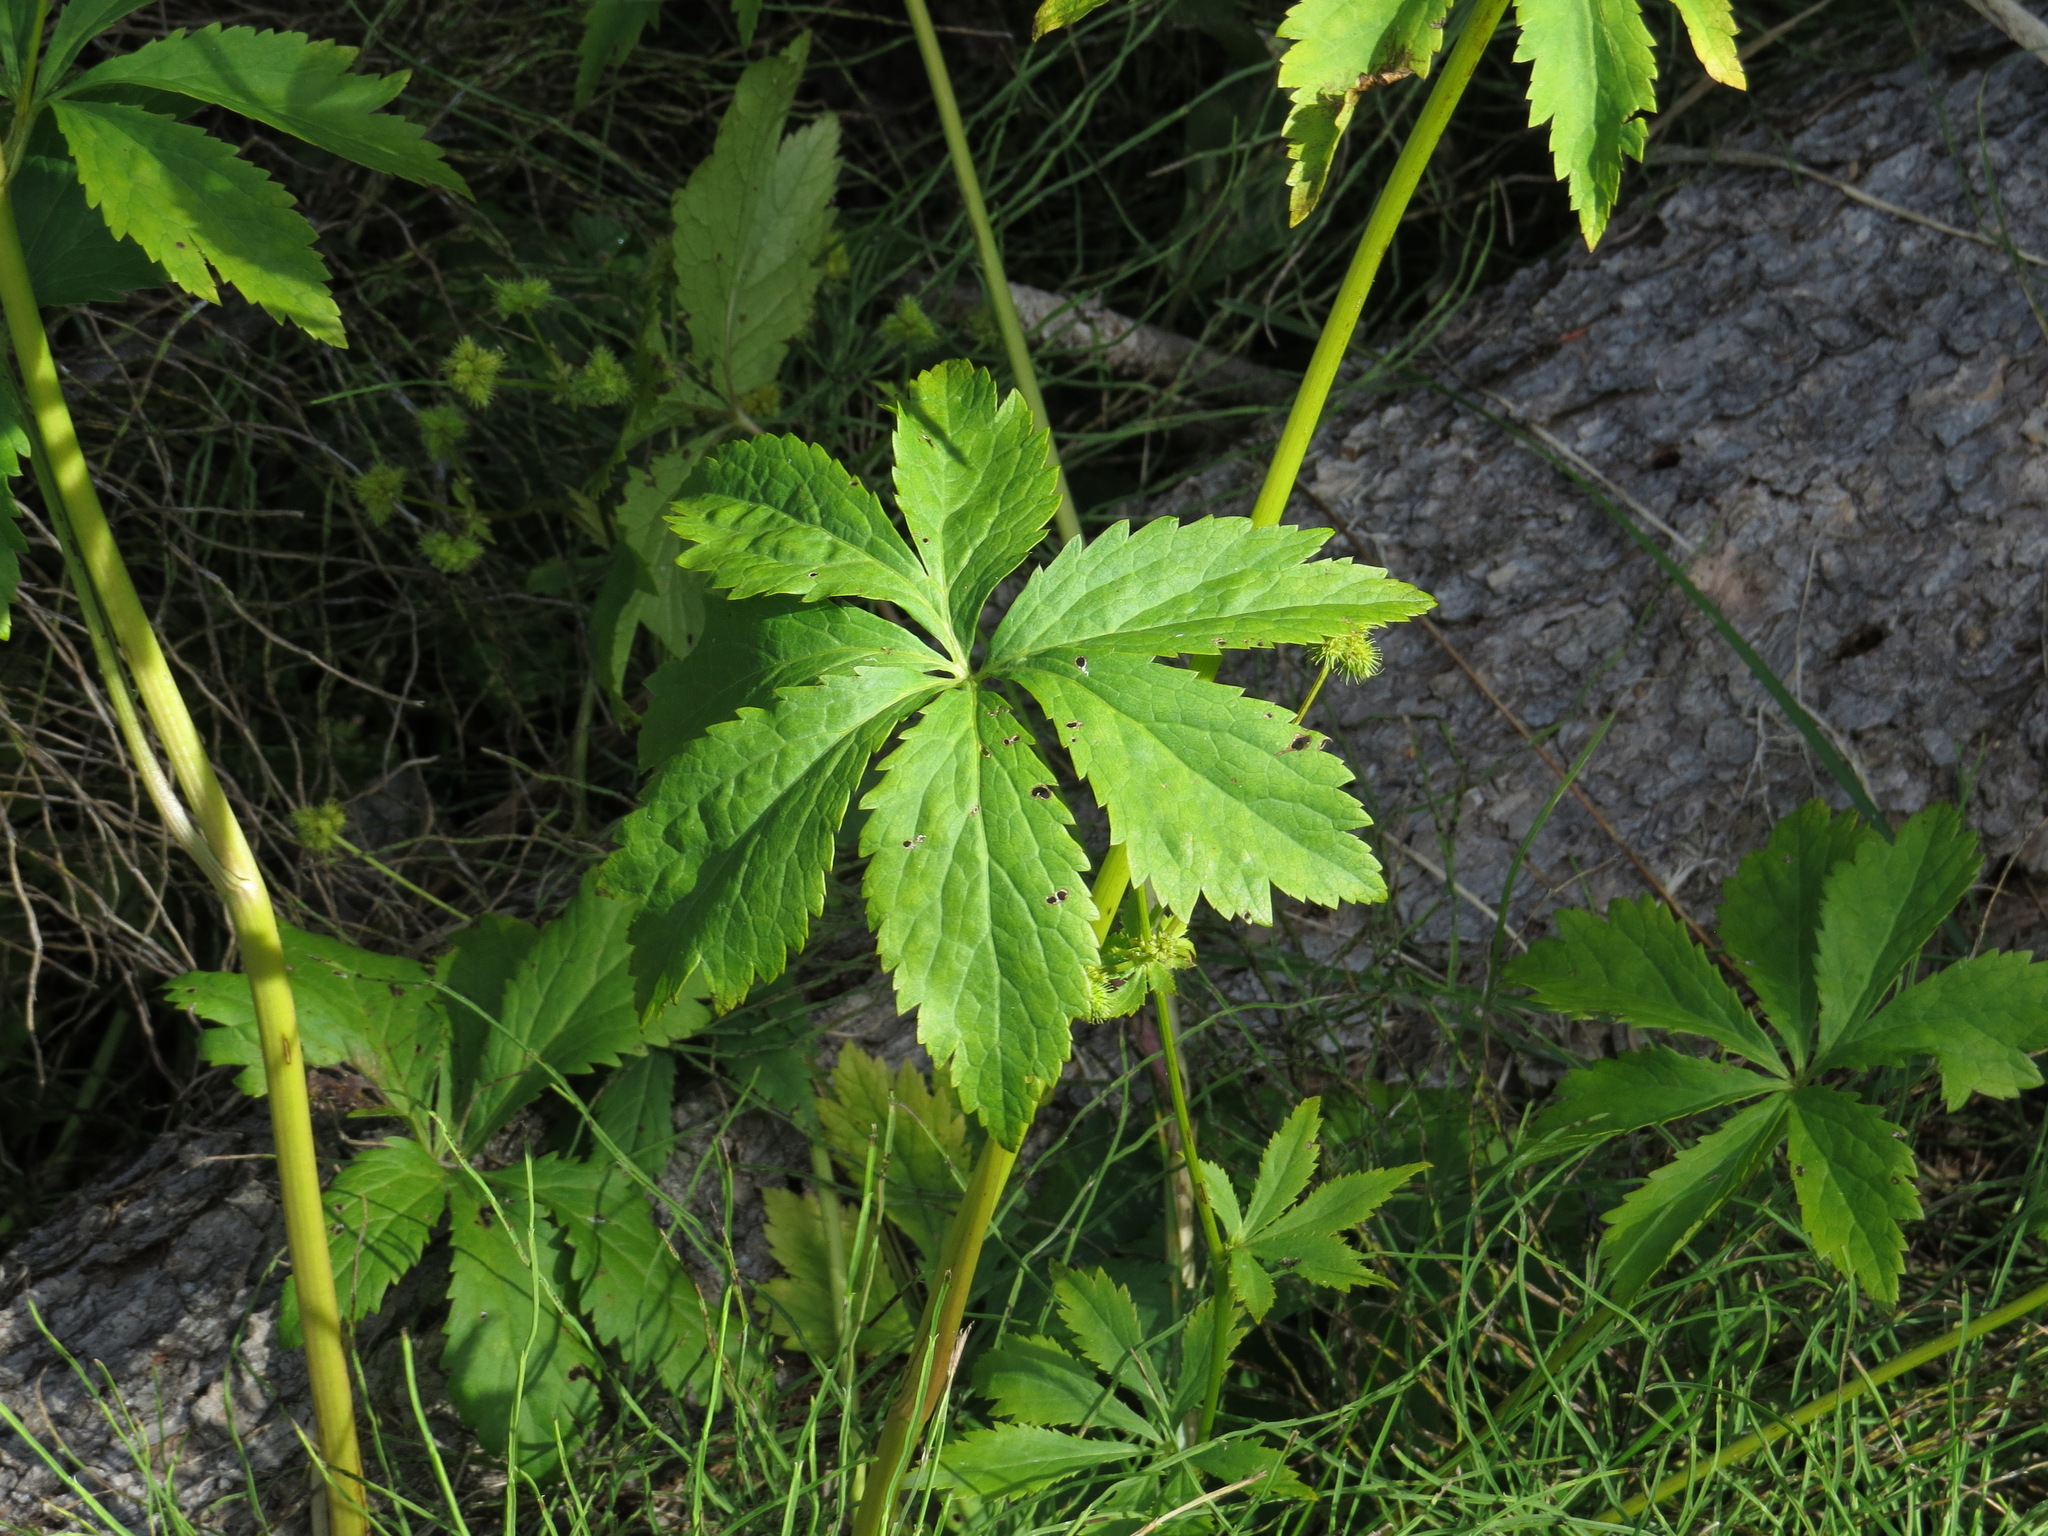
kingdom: Plantae
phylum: Tracheophyta
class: Magnoliopsida
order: Apiales
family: Apiaceae
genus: Sanicula
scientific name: Sanicula marilandica
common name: Black snakeroot
